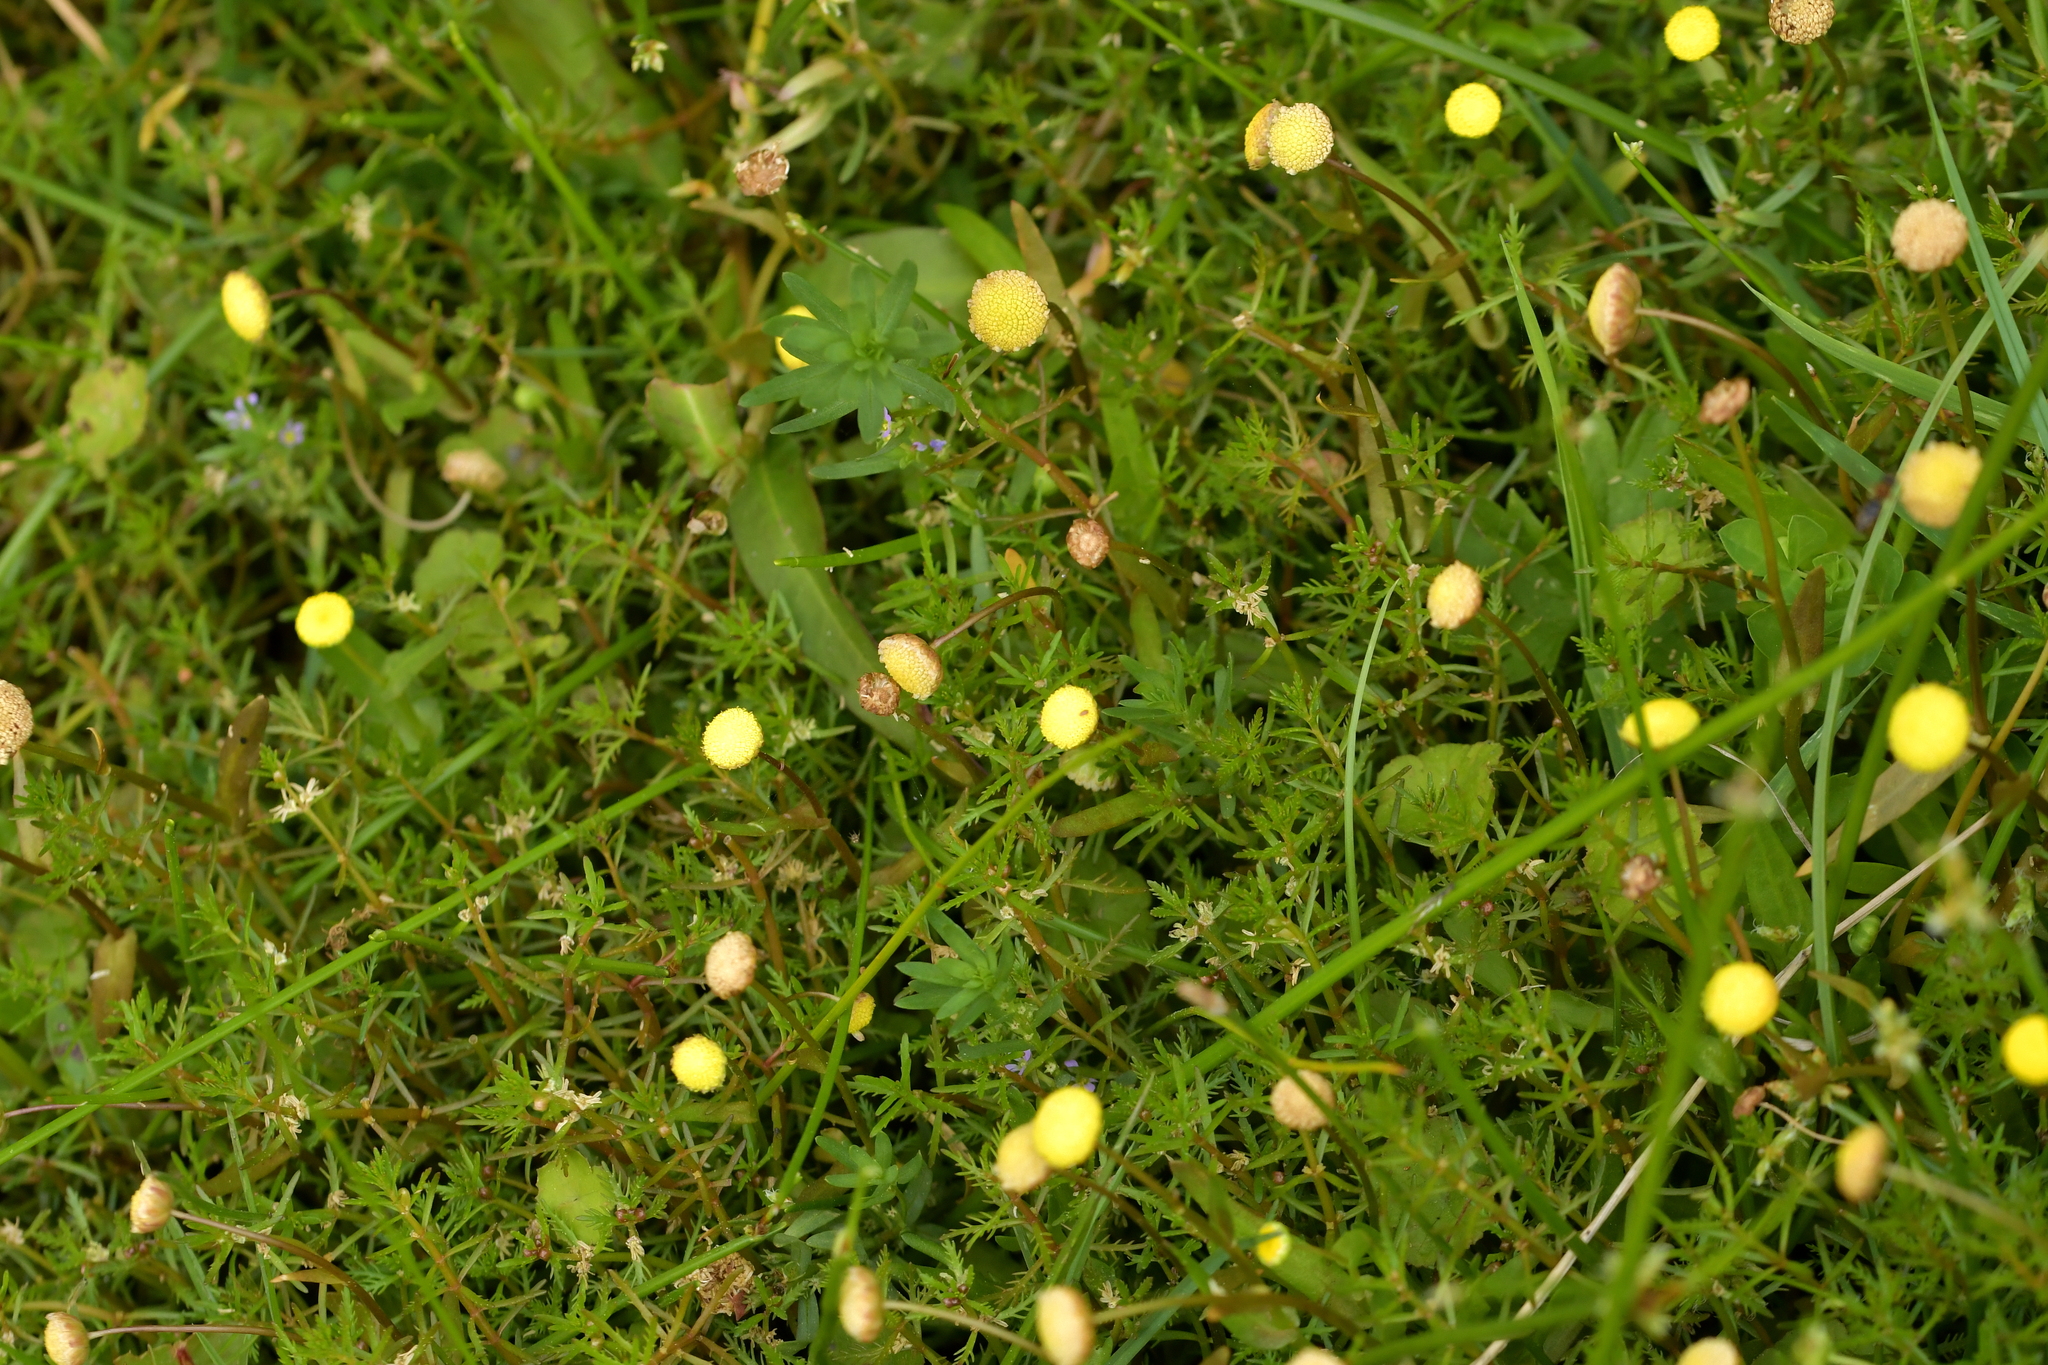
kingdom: Plantae
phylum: Tracheophyta
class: Magnoliopsida
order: Asterales
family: Asteraceae
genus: Cotula
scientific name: Cotula coronopifolia
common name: Buttonweed
